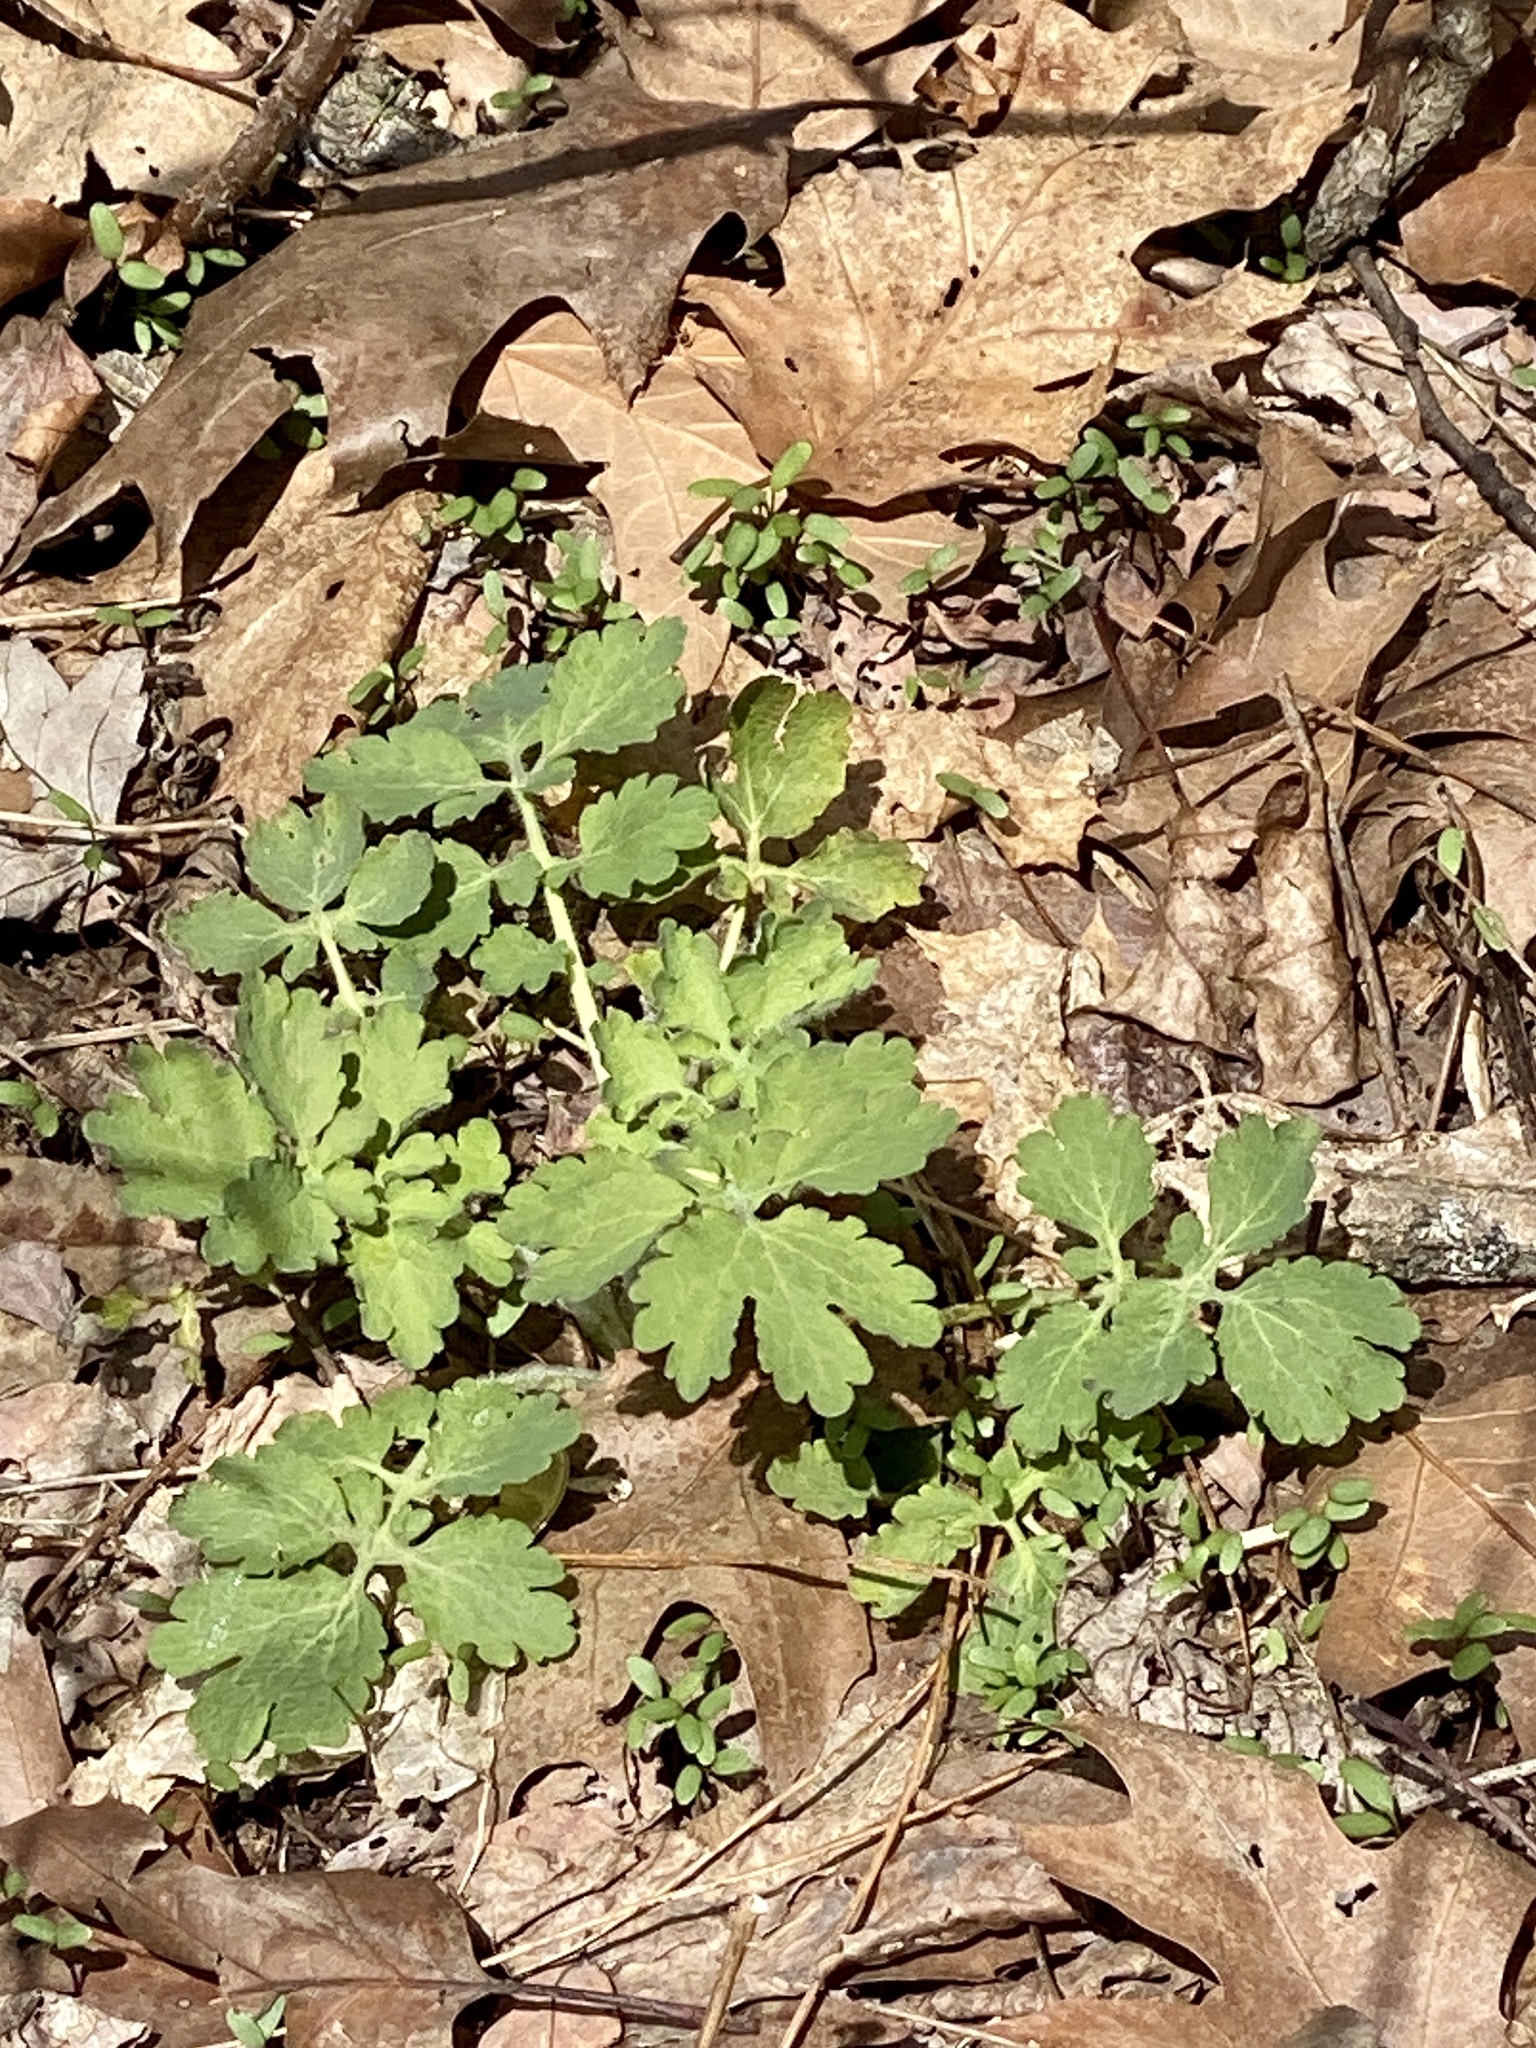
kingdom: Plantae
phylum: Tracheophyta
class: Magnoliopsida
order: Ranunculales
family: Papaveraceae
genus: Chelidonium
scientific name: Chelidonium majus
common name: Greater celandine
